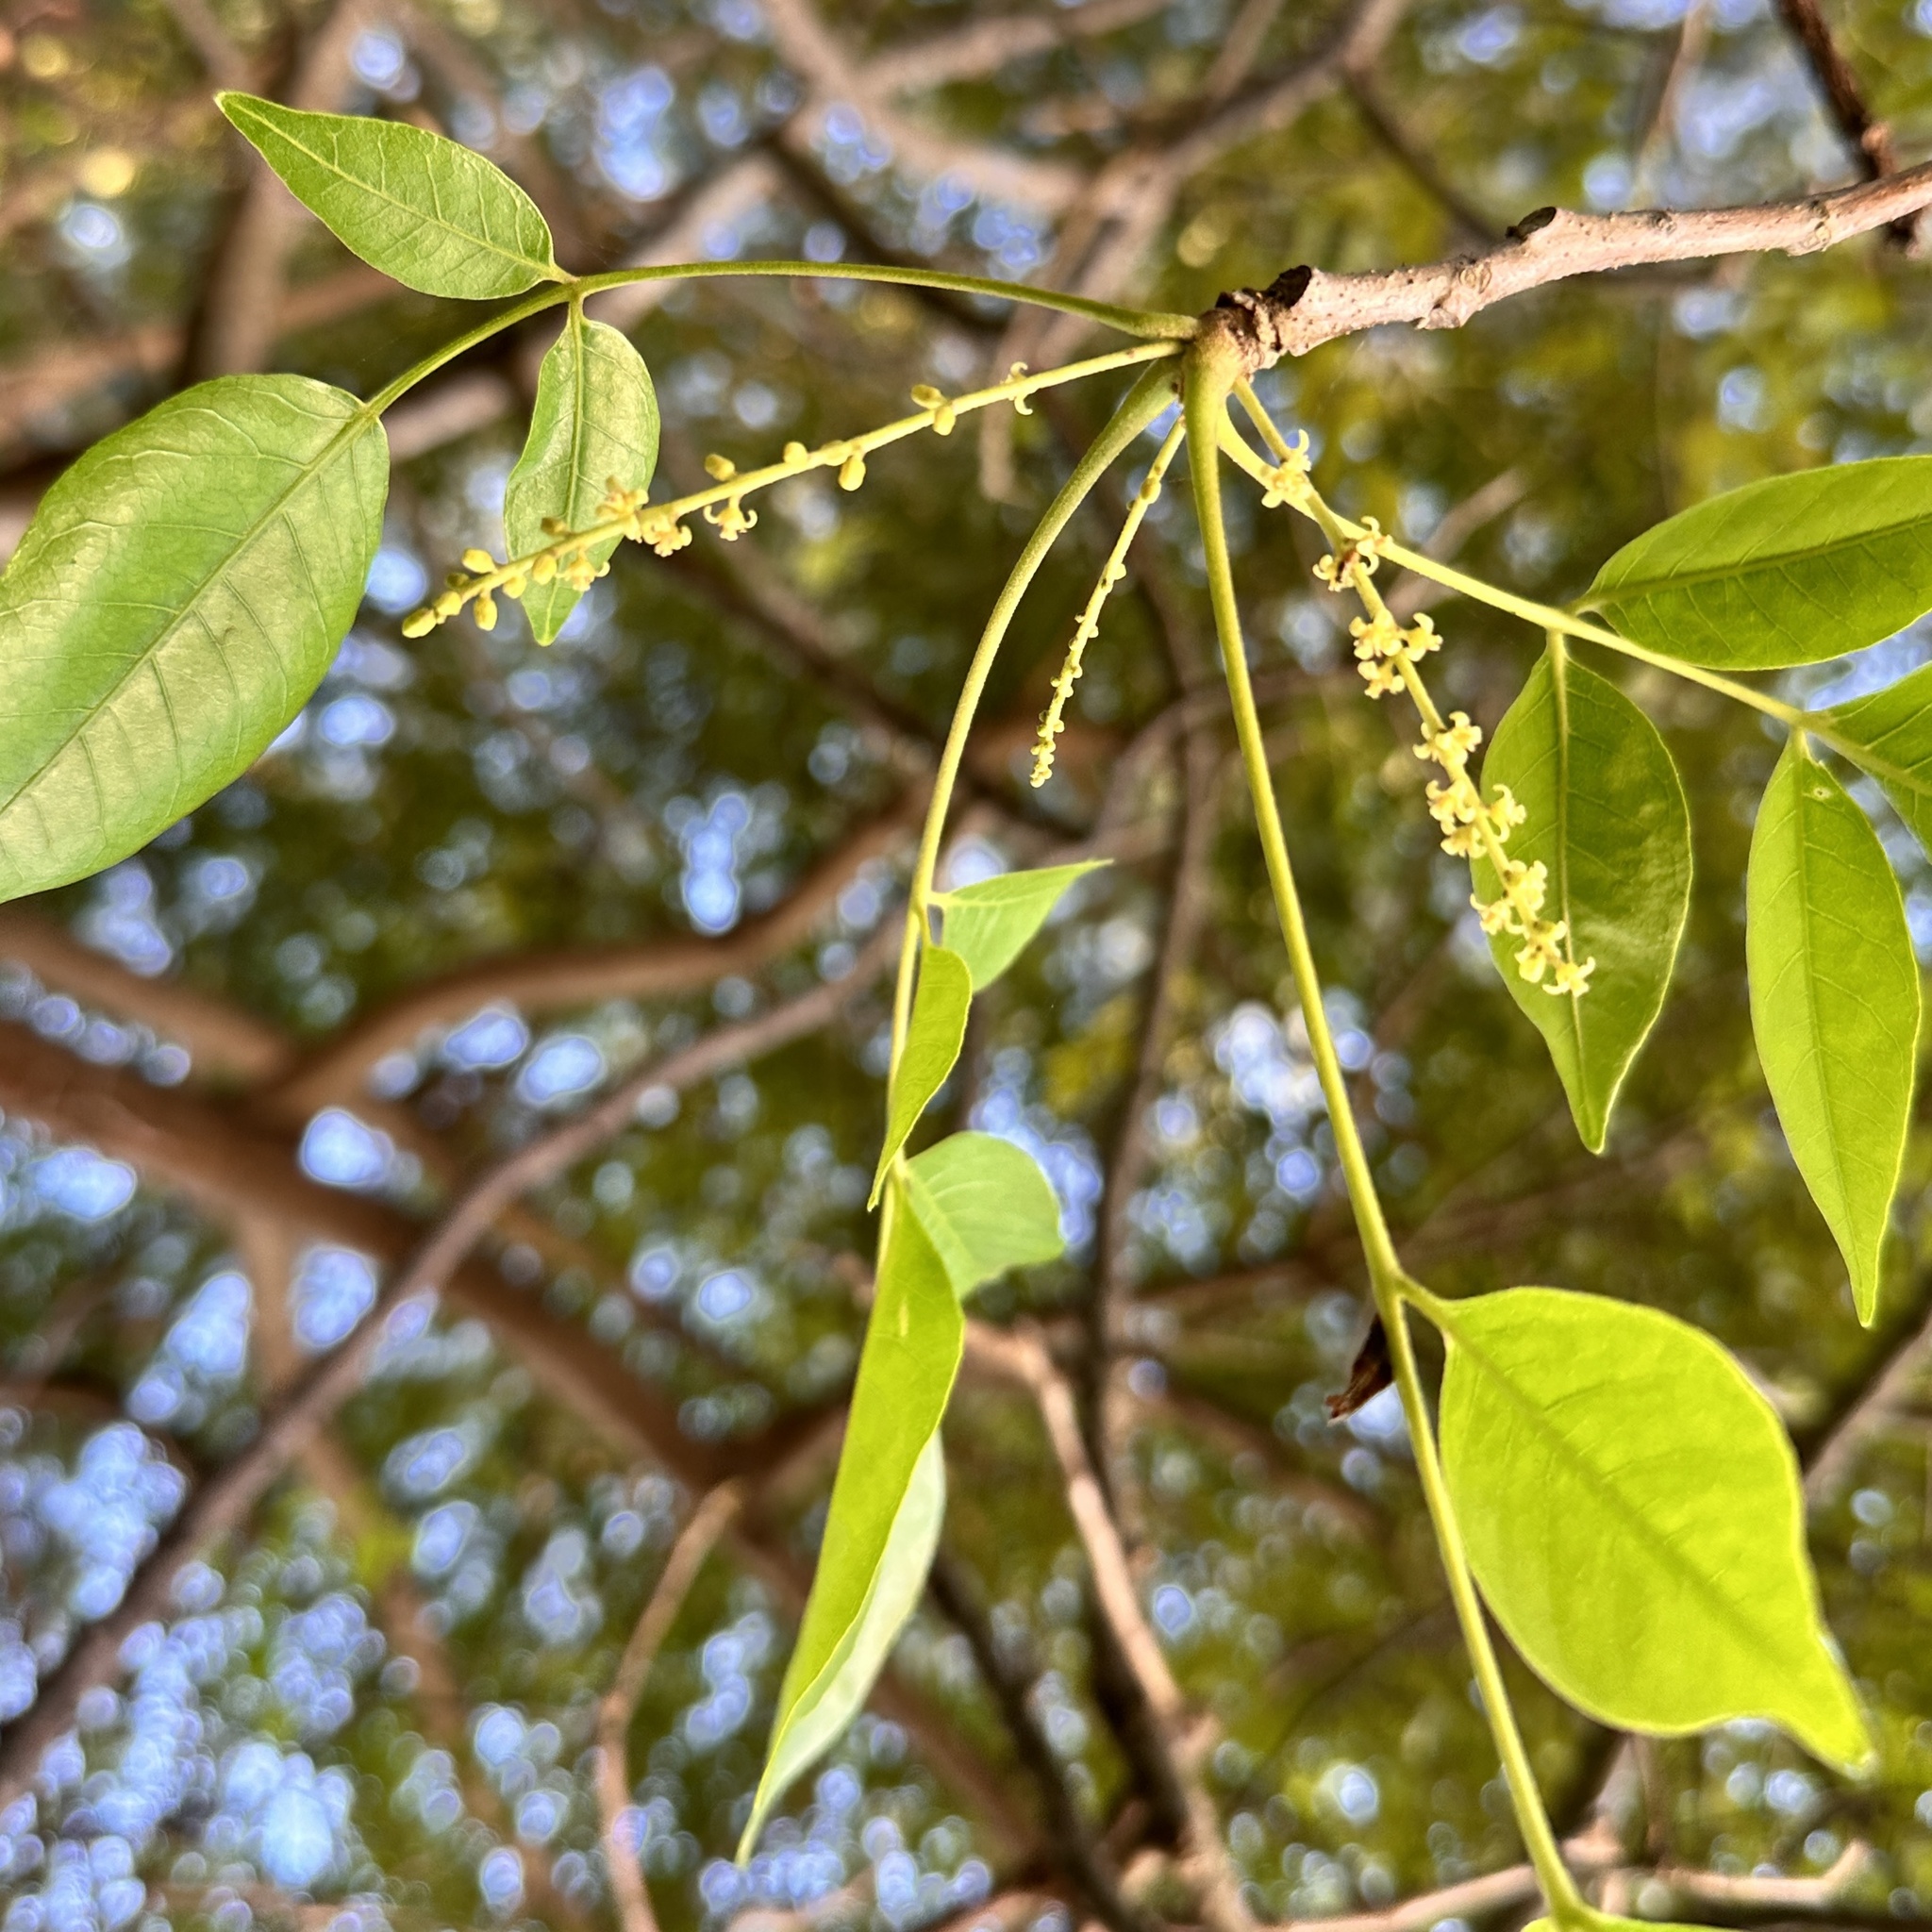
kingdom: Plantae
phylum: Tracheophyta
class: Magnoliopsida
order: Sapindales
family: Anacardiaceae
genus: Lannea
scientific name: Lannea coromandelica
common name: Indian ash tree
